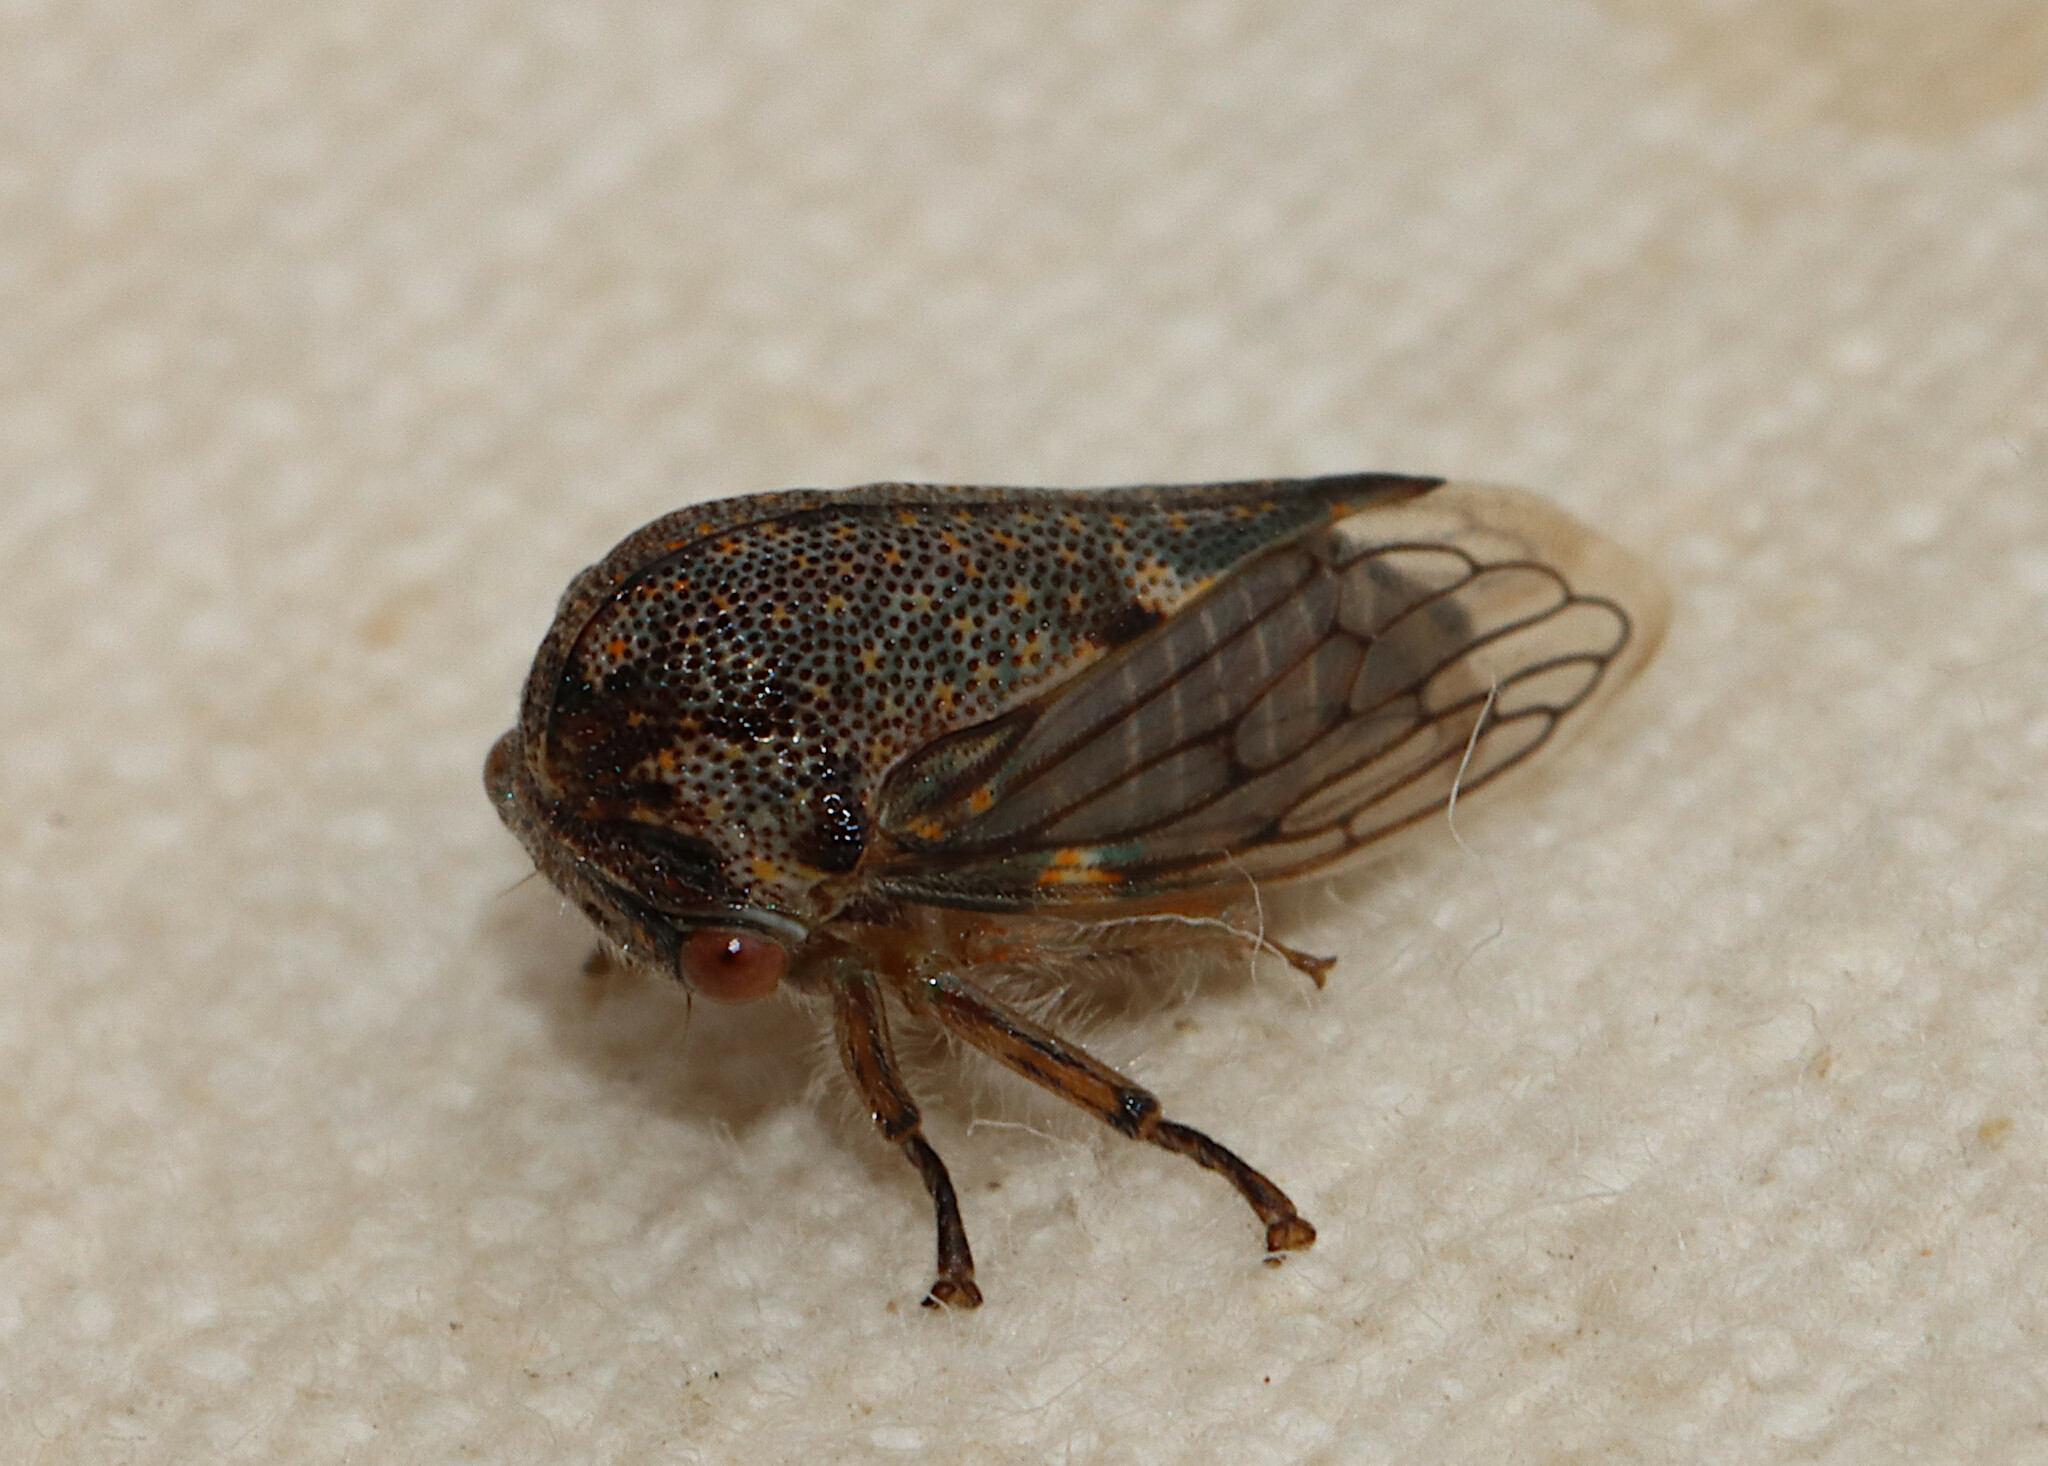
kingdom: Animalia
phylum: Arthropoda
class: Insecta
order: Hemiptera
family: Membracidae
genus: Platycotis
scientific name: Platycotis vittatus
